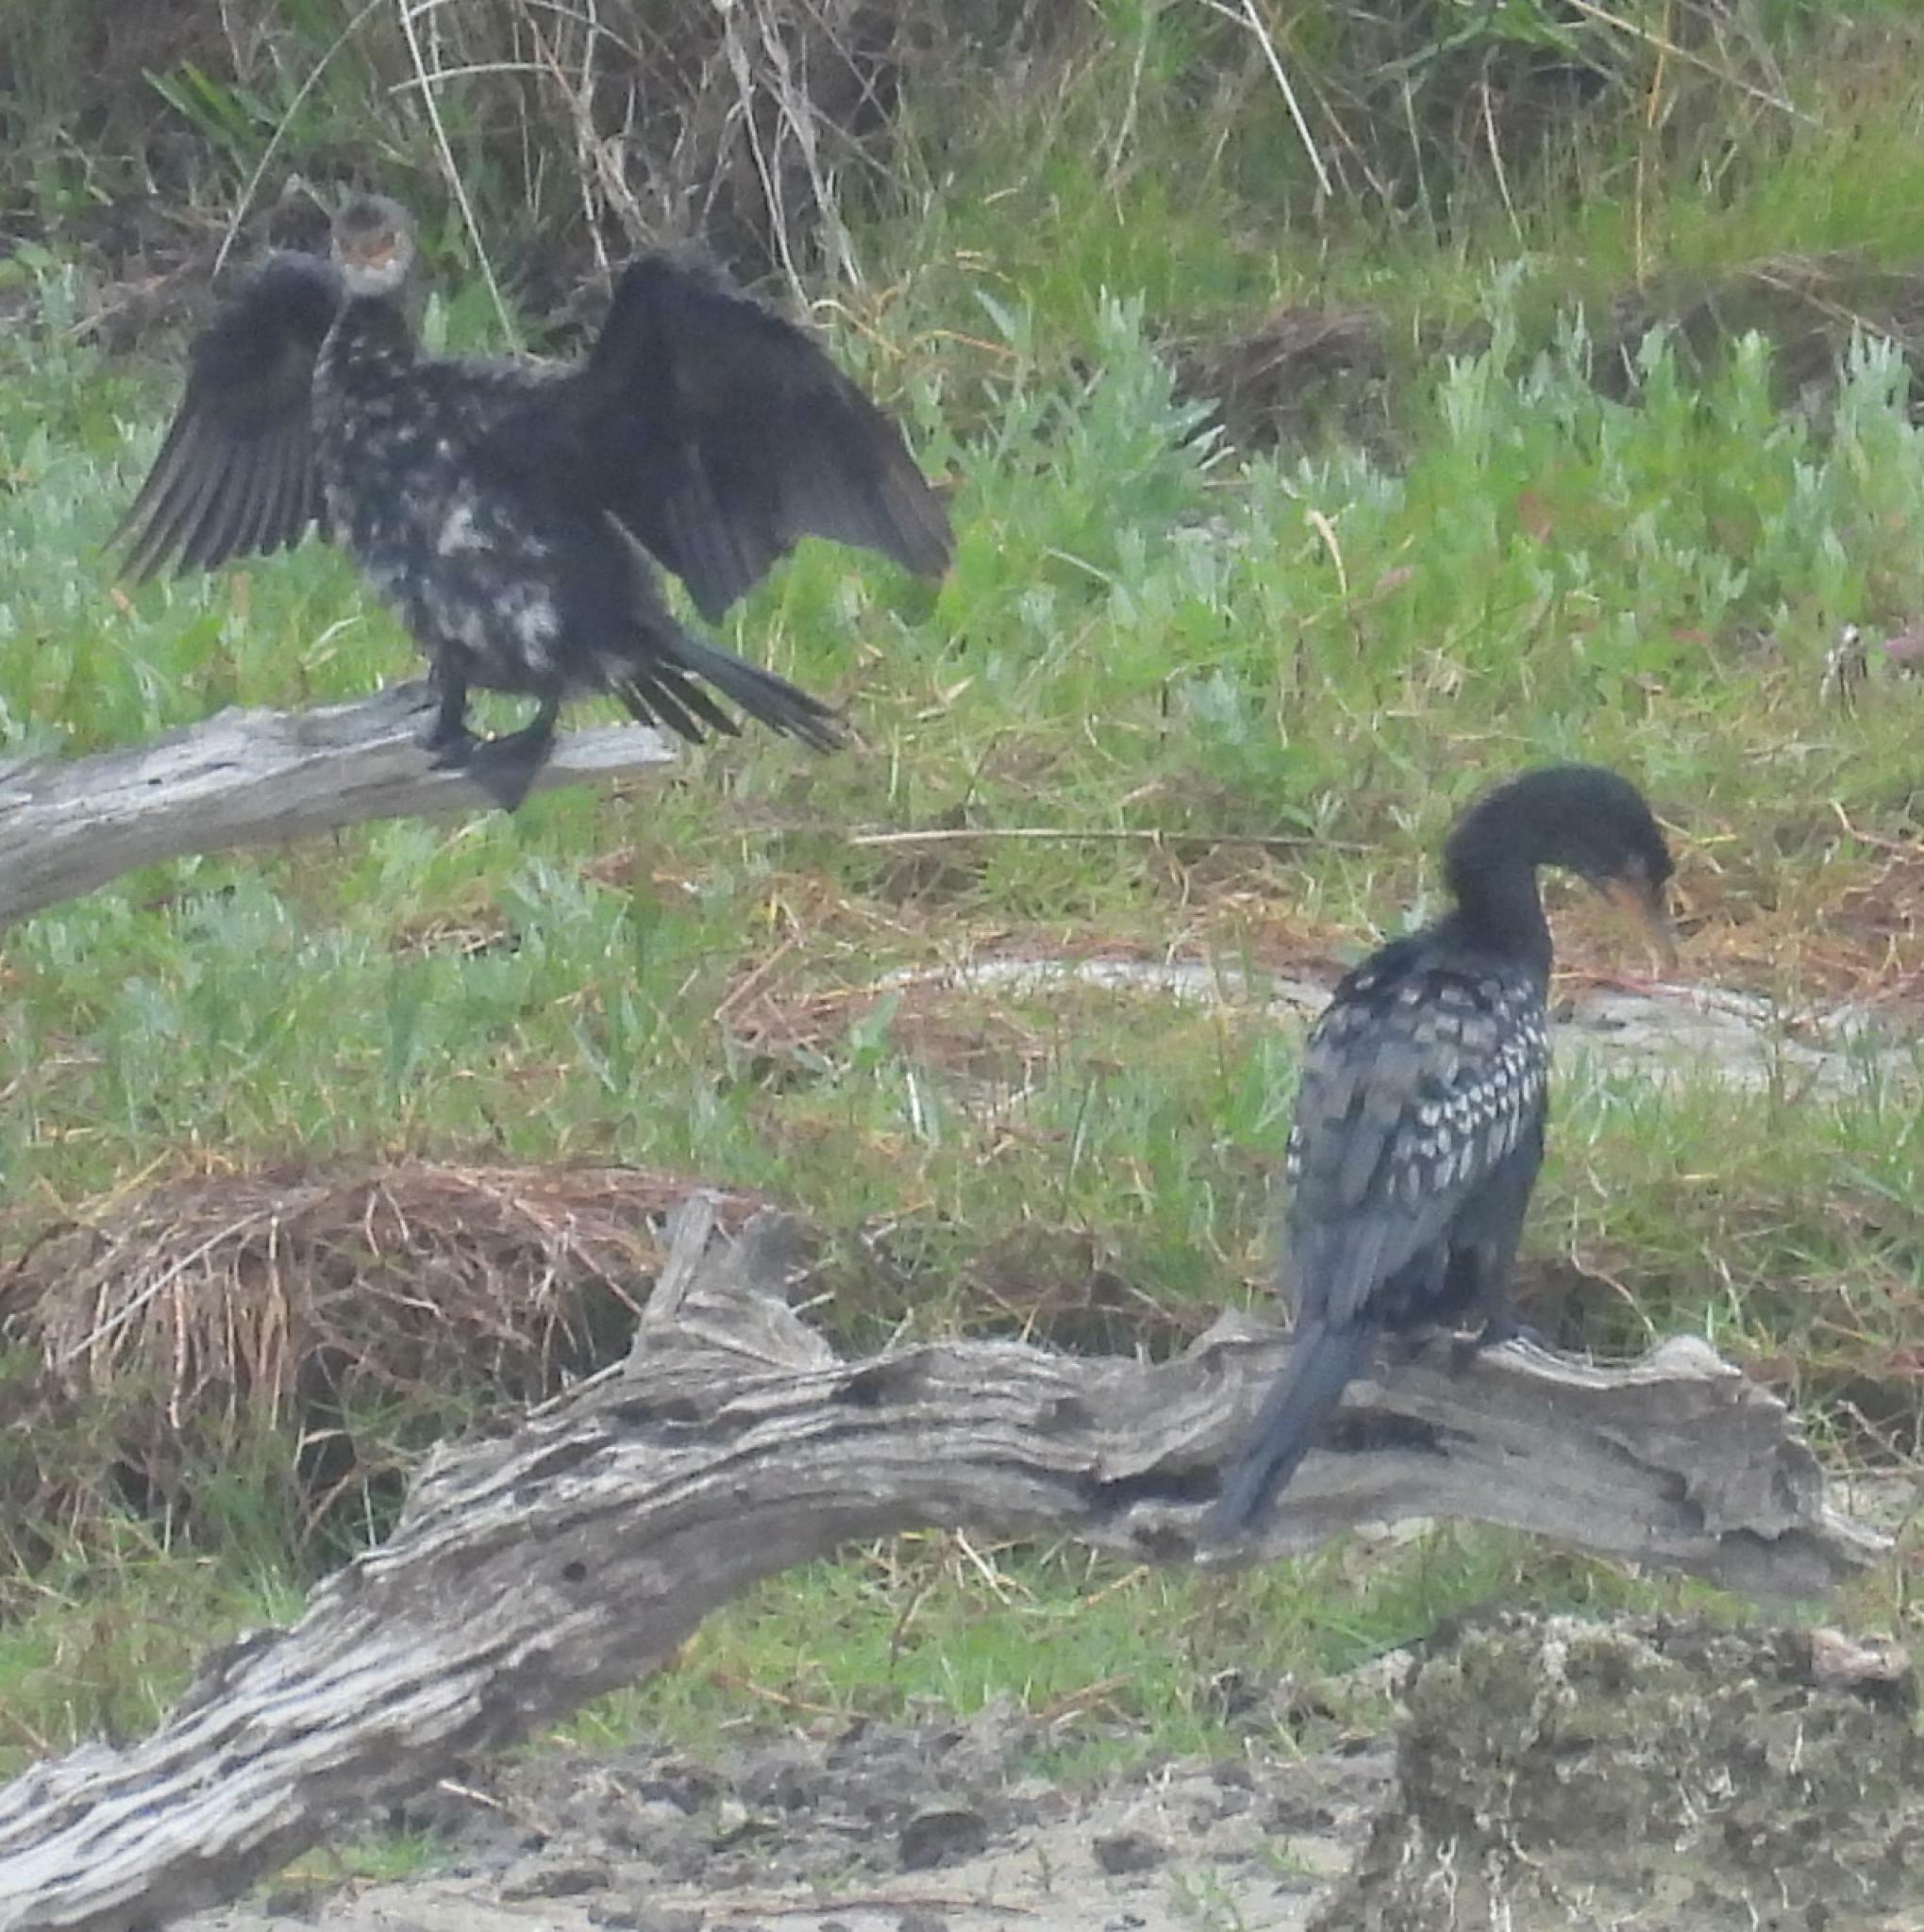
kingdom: Animalia
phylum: Chordata
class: Aves
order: Suliformes
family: Phalacrocoracidae
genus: Microcarbo
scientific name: Microcarbo africanus
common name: Long-tailed cormorant
